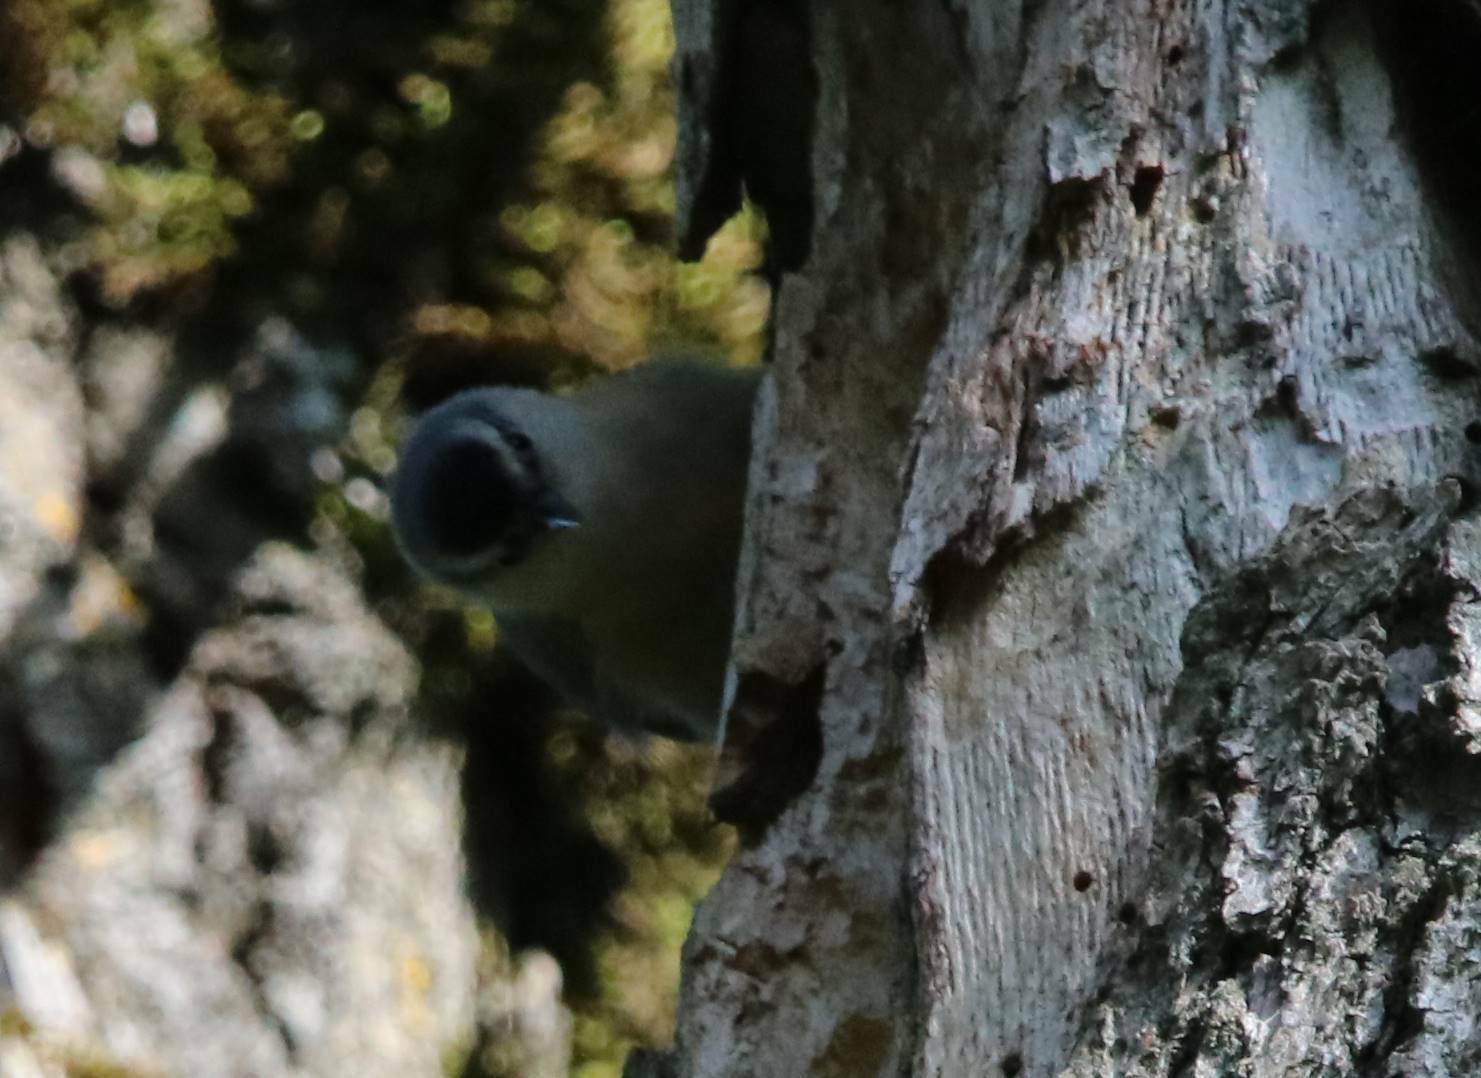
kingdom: Animalia
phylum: Chordata
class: Aves
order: Passeriformes
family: Sittidae
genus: Sitta
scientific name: Sitta ledanti
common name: Algerian nuthatch
